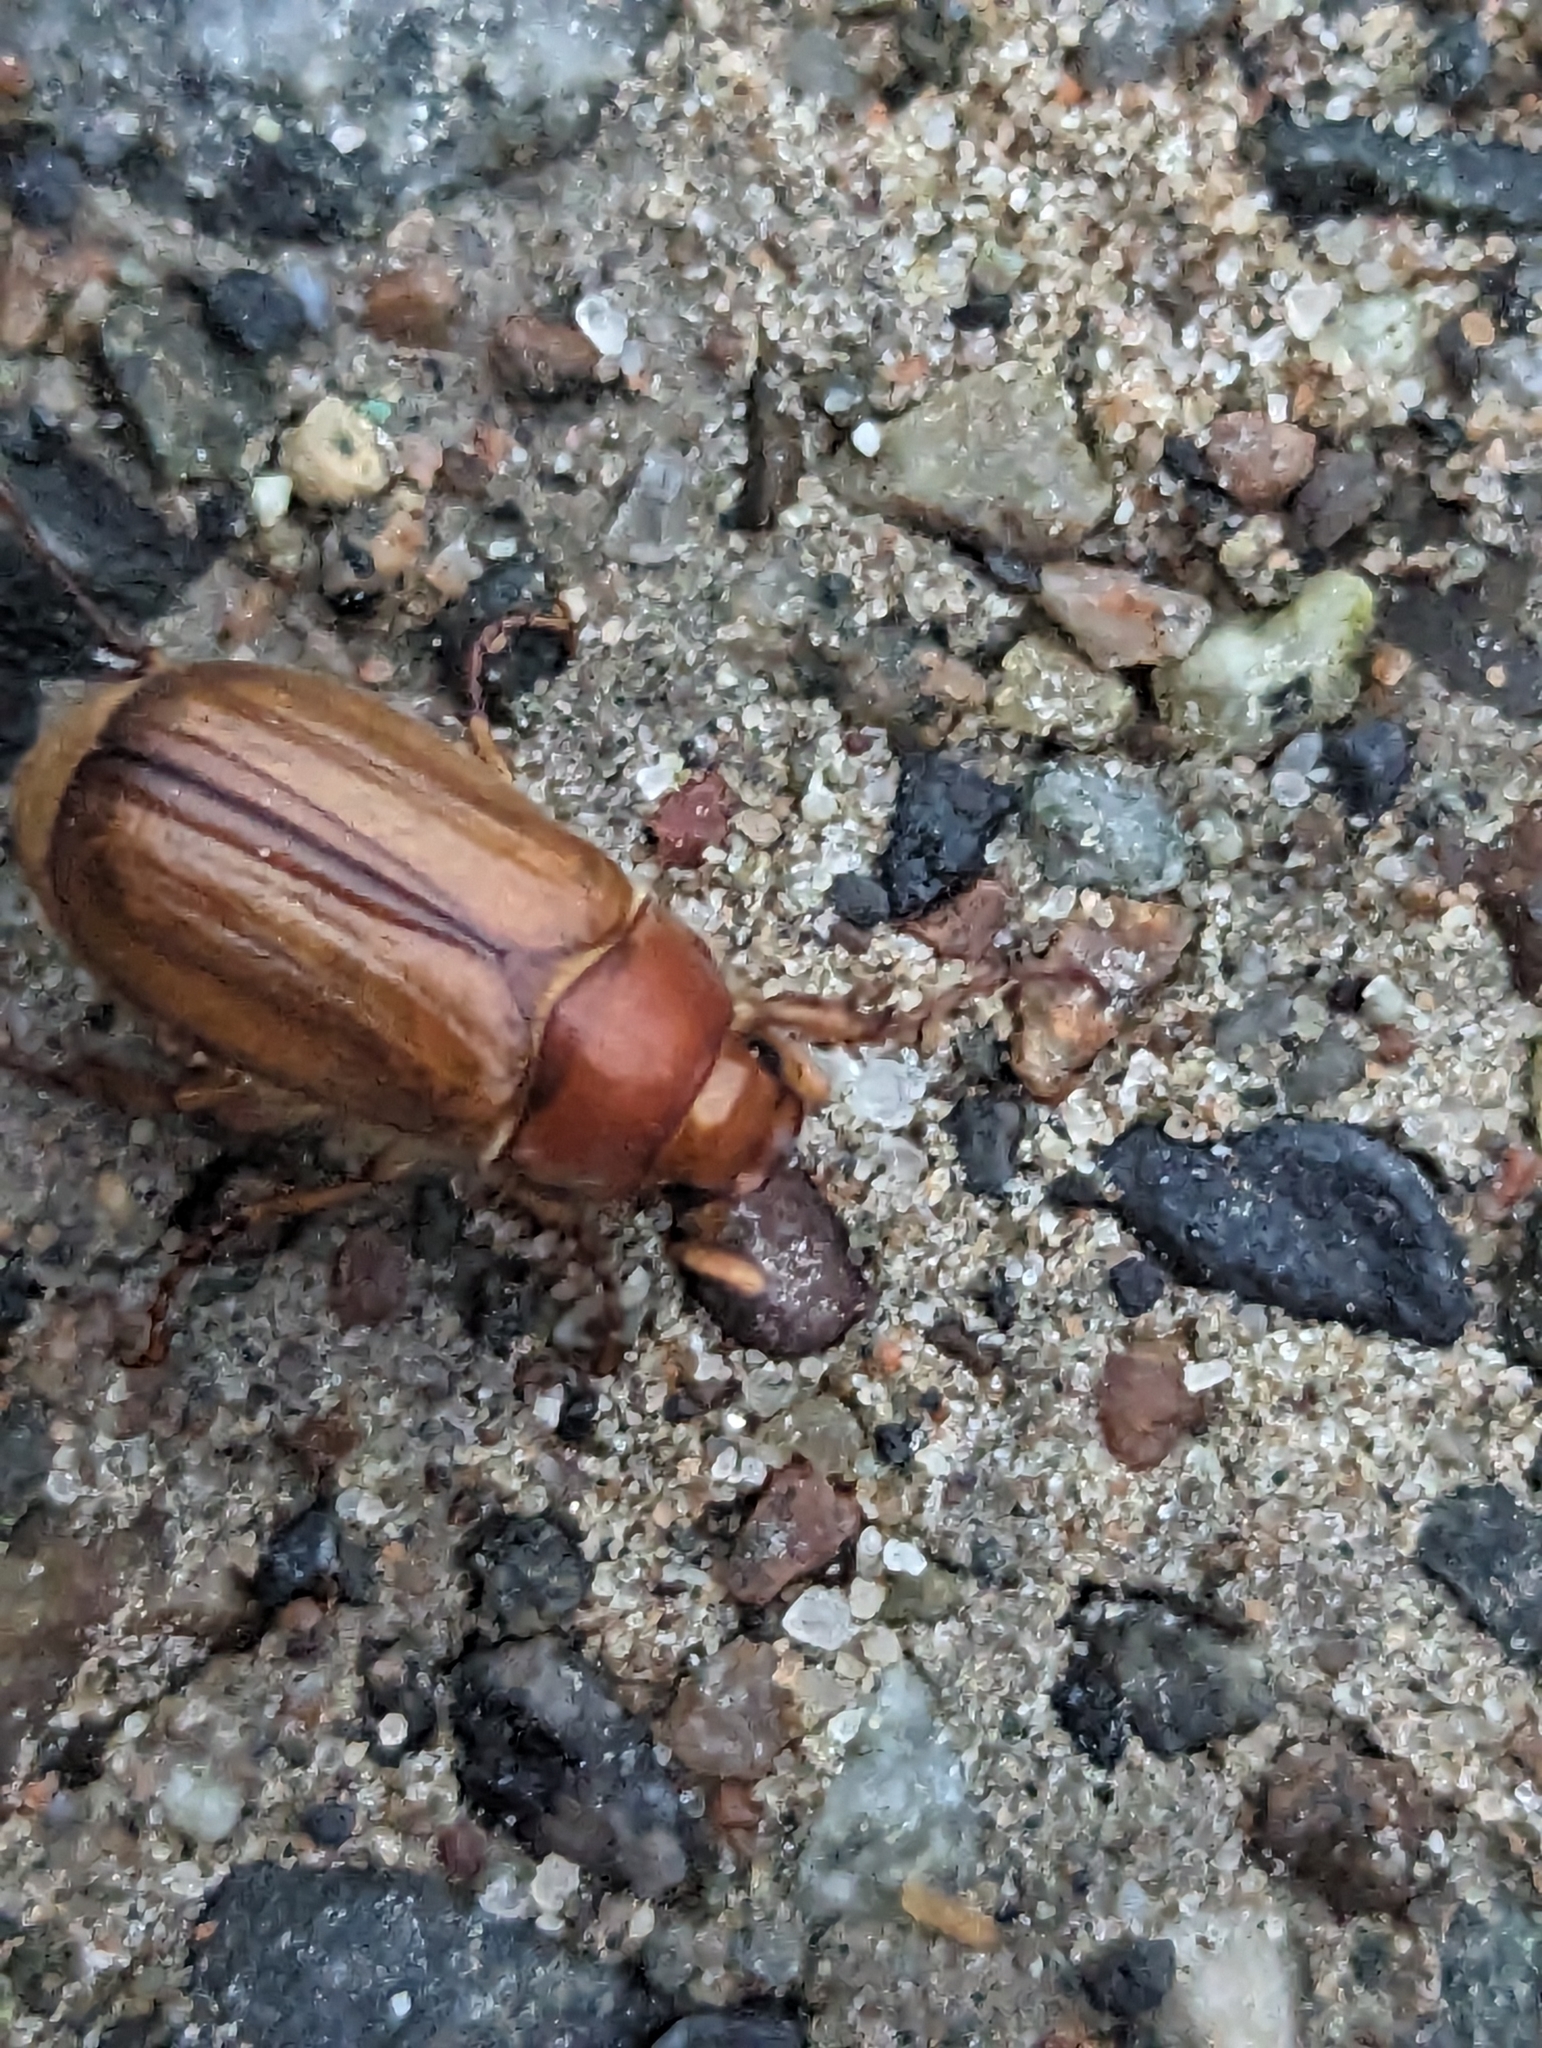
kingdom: Animalia
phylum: Arthropoda
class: Insecta
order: Coleoptera
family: Scarabaeidae
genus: Amphimallon
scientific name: Amphimallon majale
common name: European chafer
